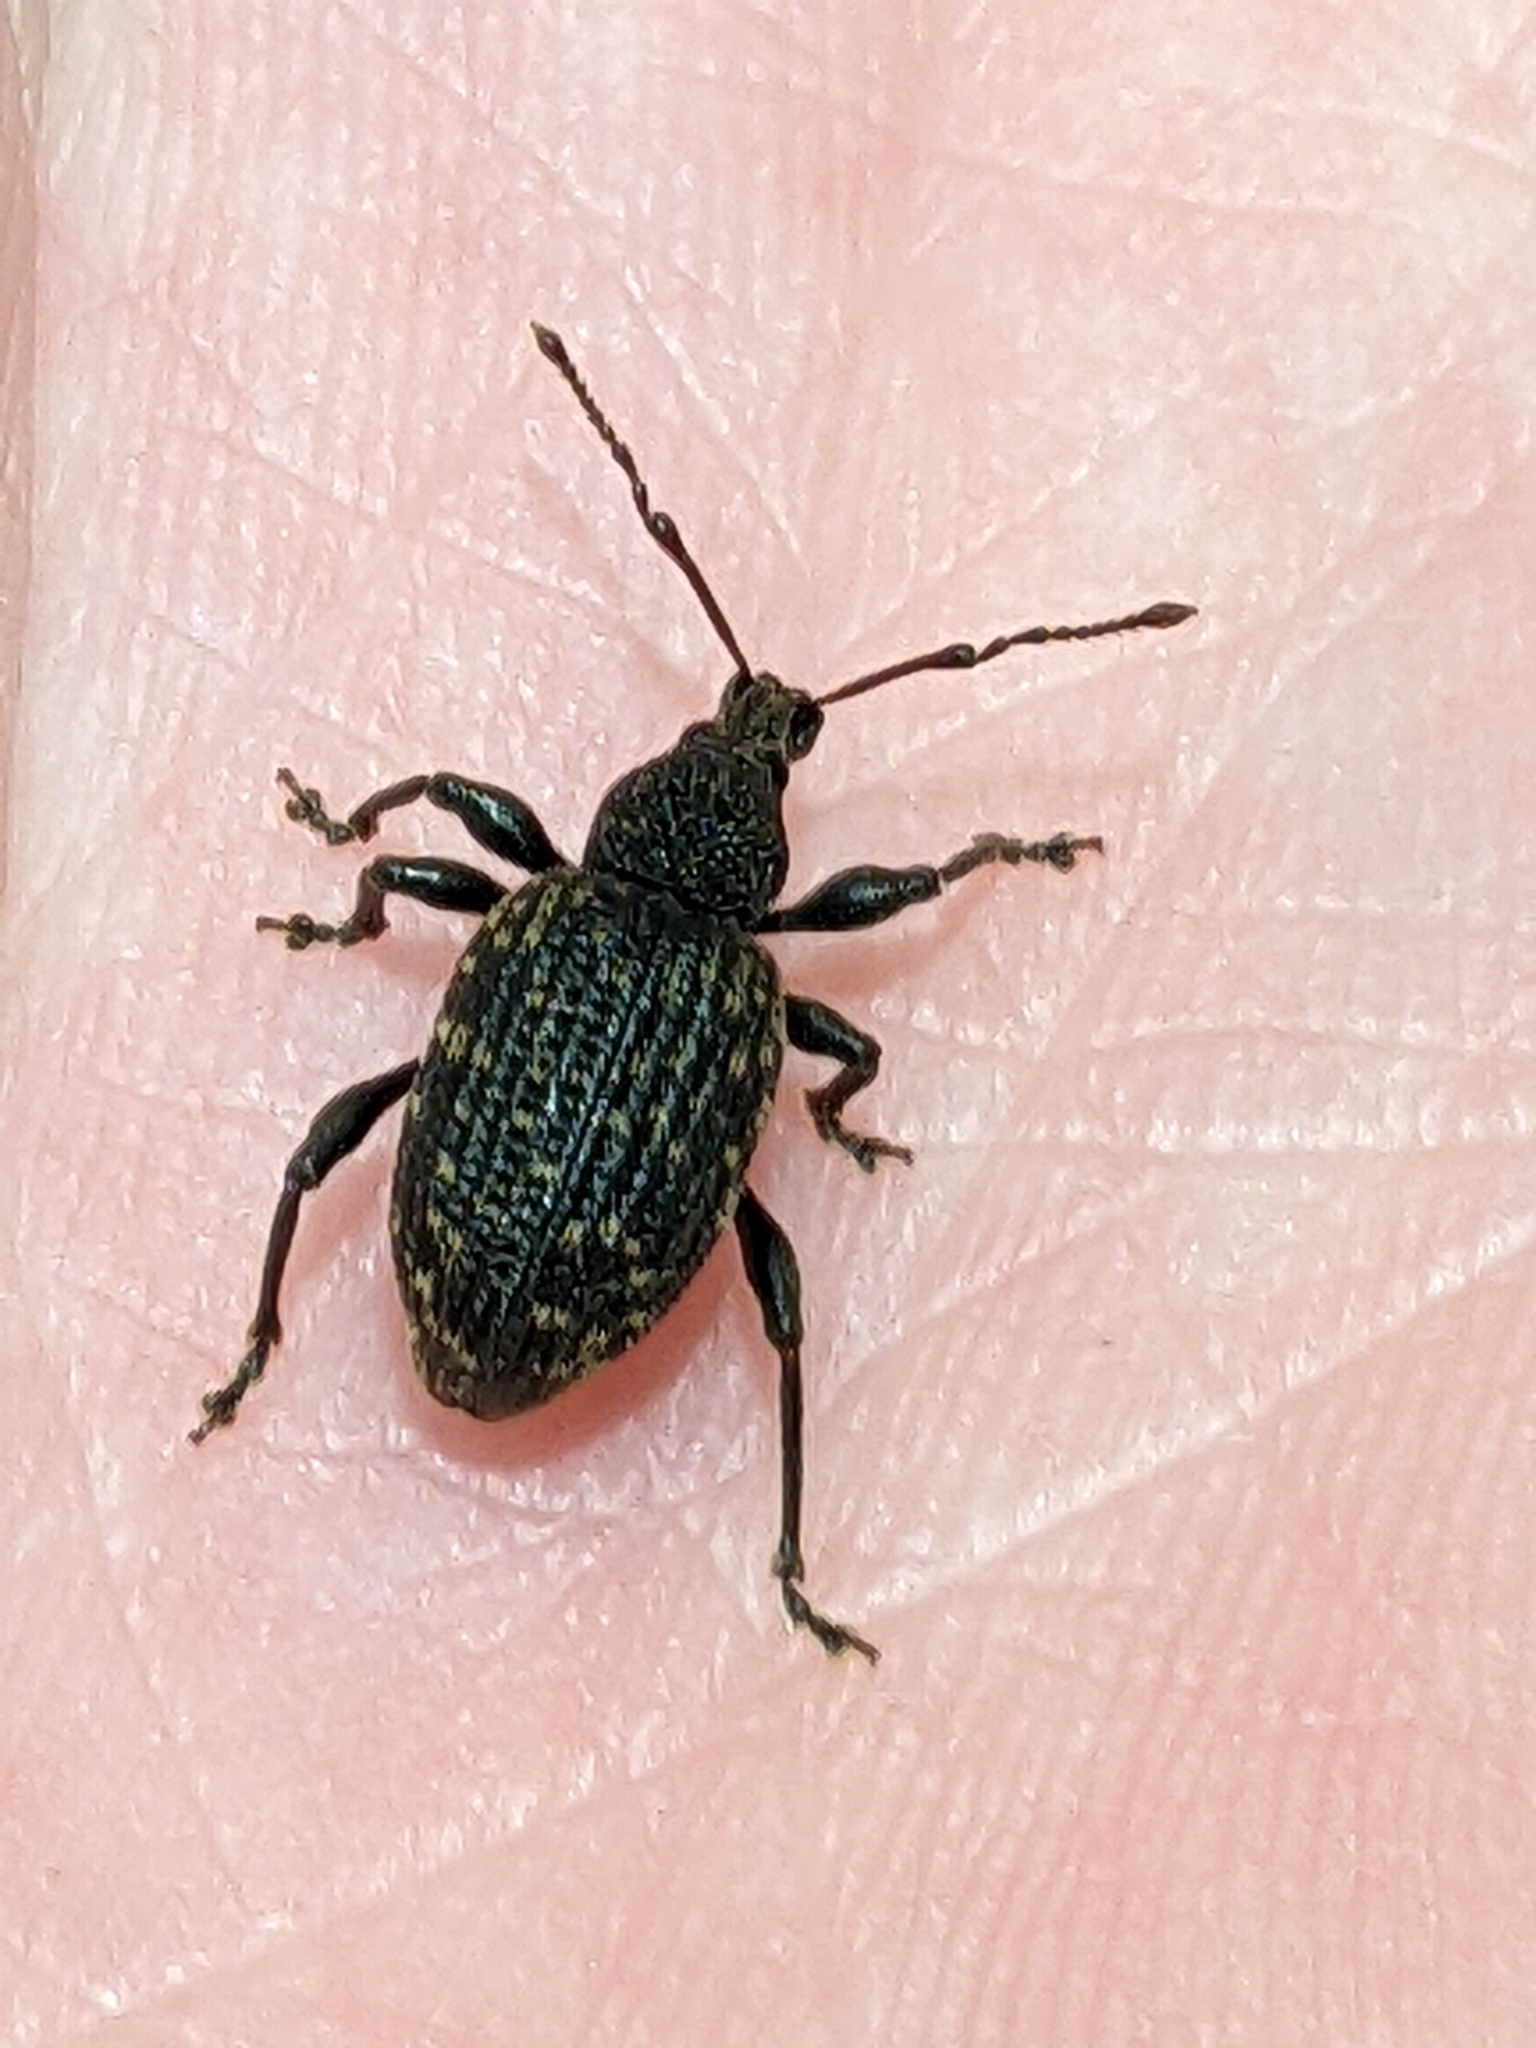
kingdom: Animalia
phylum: Arthropoda
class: Insecta
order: Coleoptera
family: Curculionidae
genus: Otiorhynchus
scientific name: Otiorhynchus sulcatus
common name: Black vine weevil
